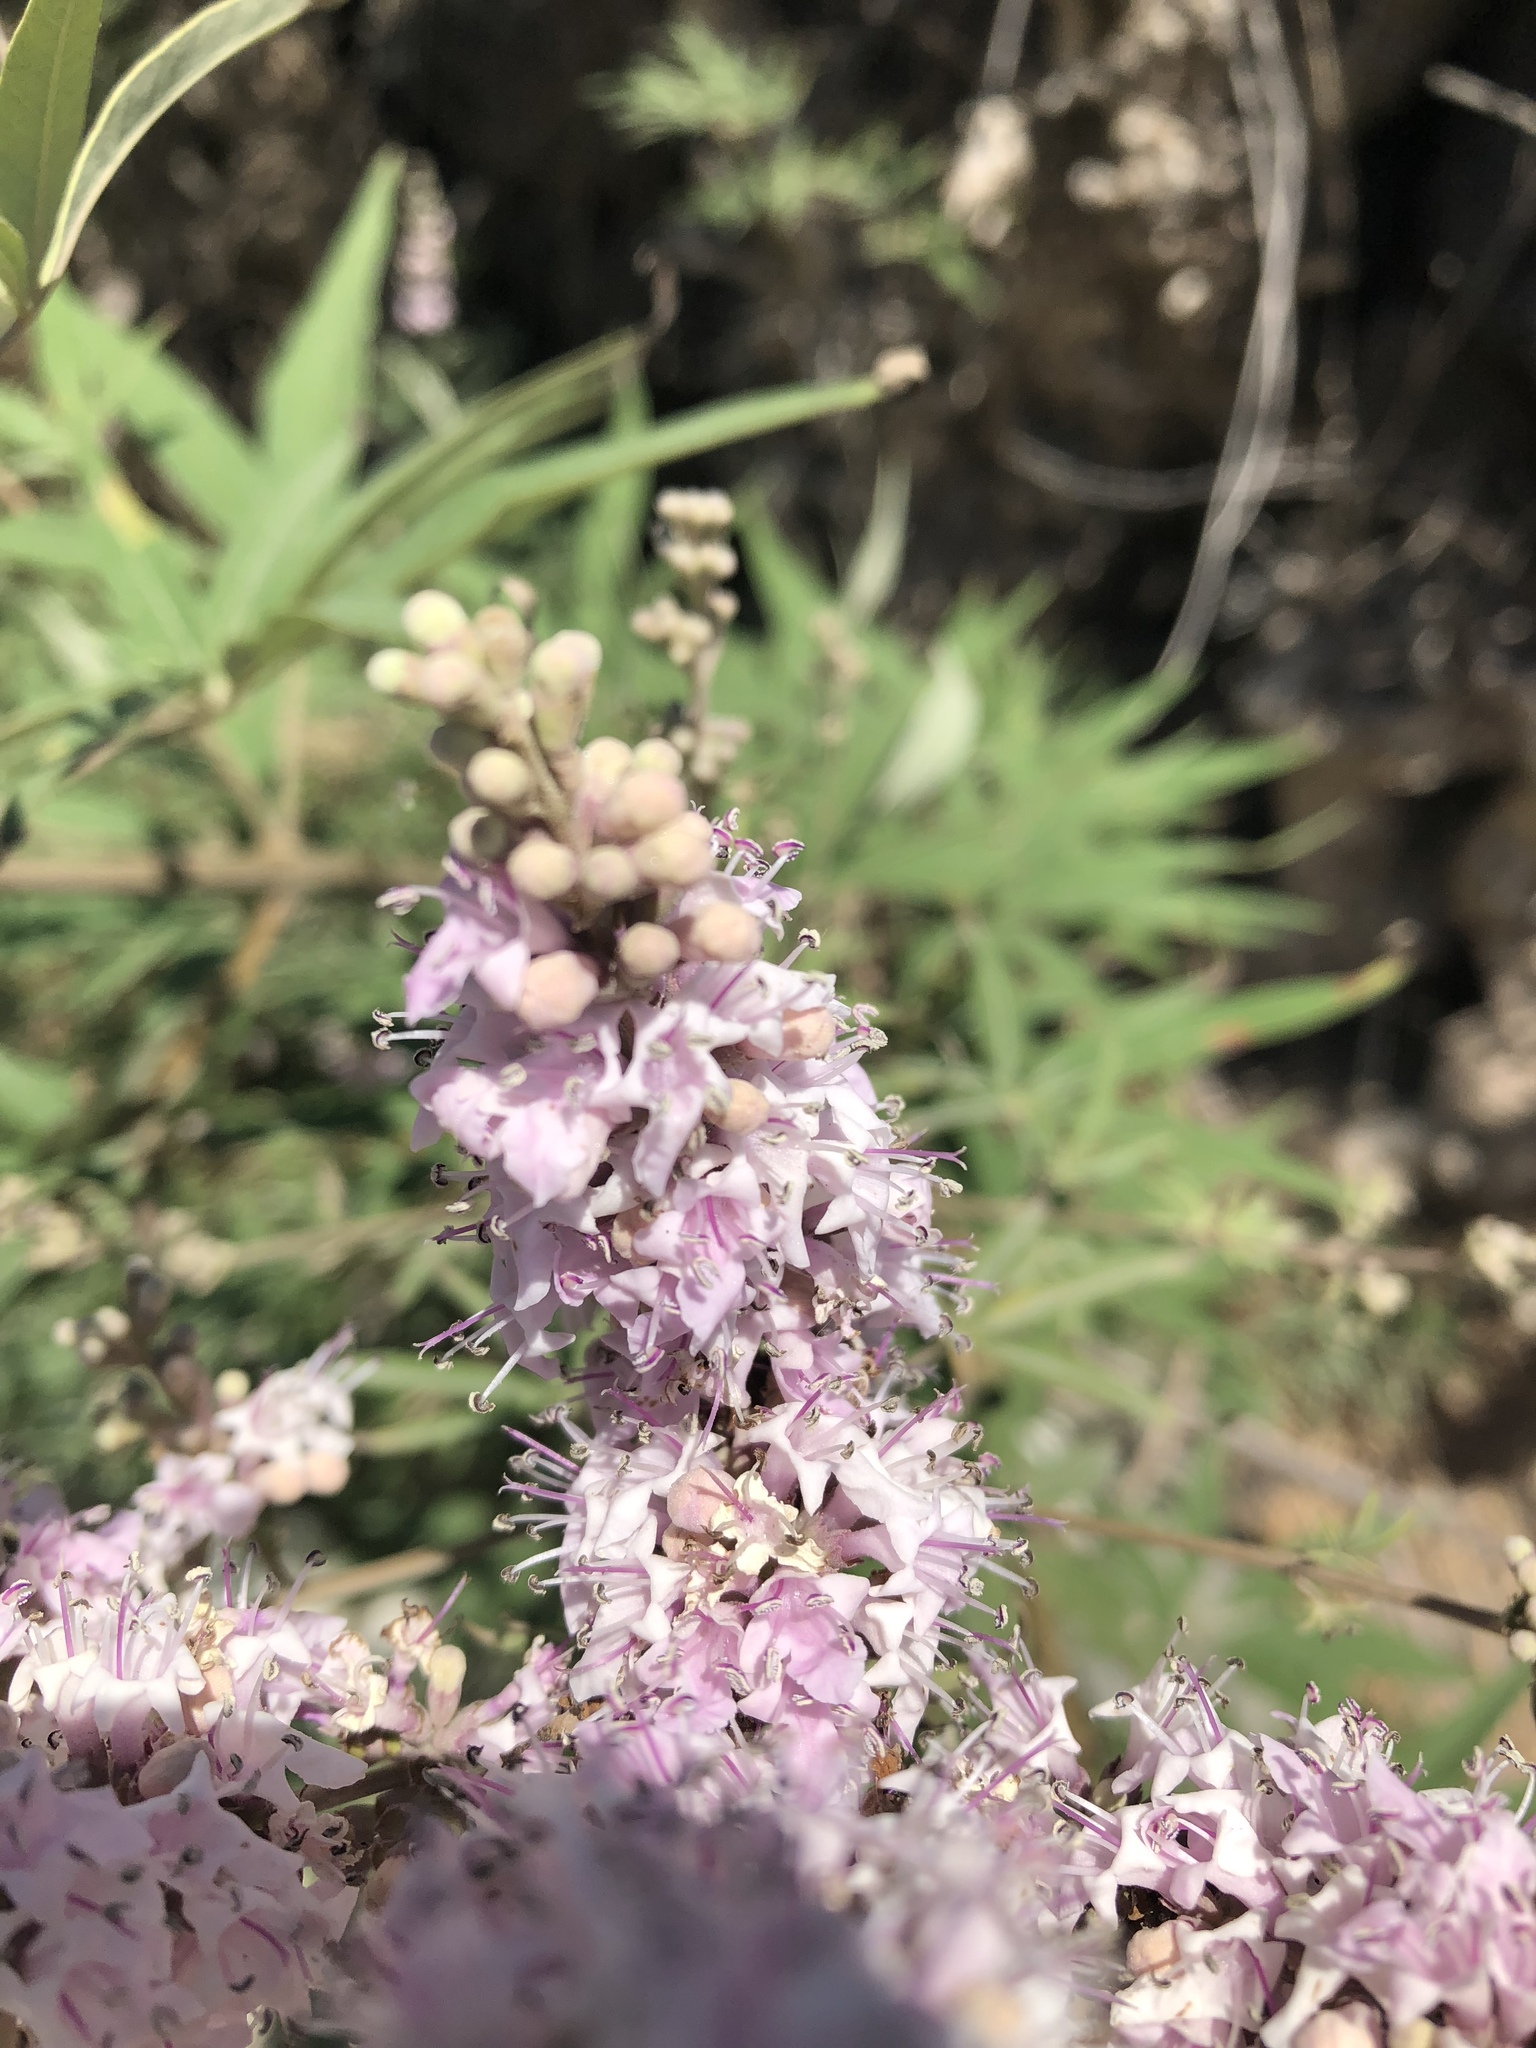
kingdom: Plantae
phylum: Tracheophyta
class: Magnoliopsida
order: Lamiales
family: Lamiaceae
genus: Vitex
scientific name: Vitex agnus-castus
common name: Chasteberry
